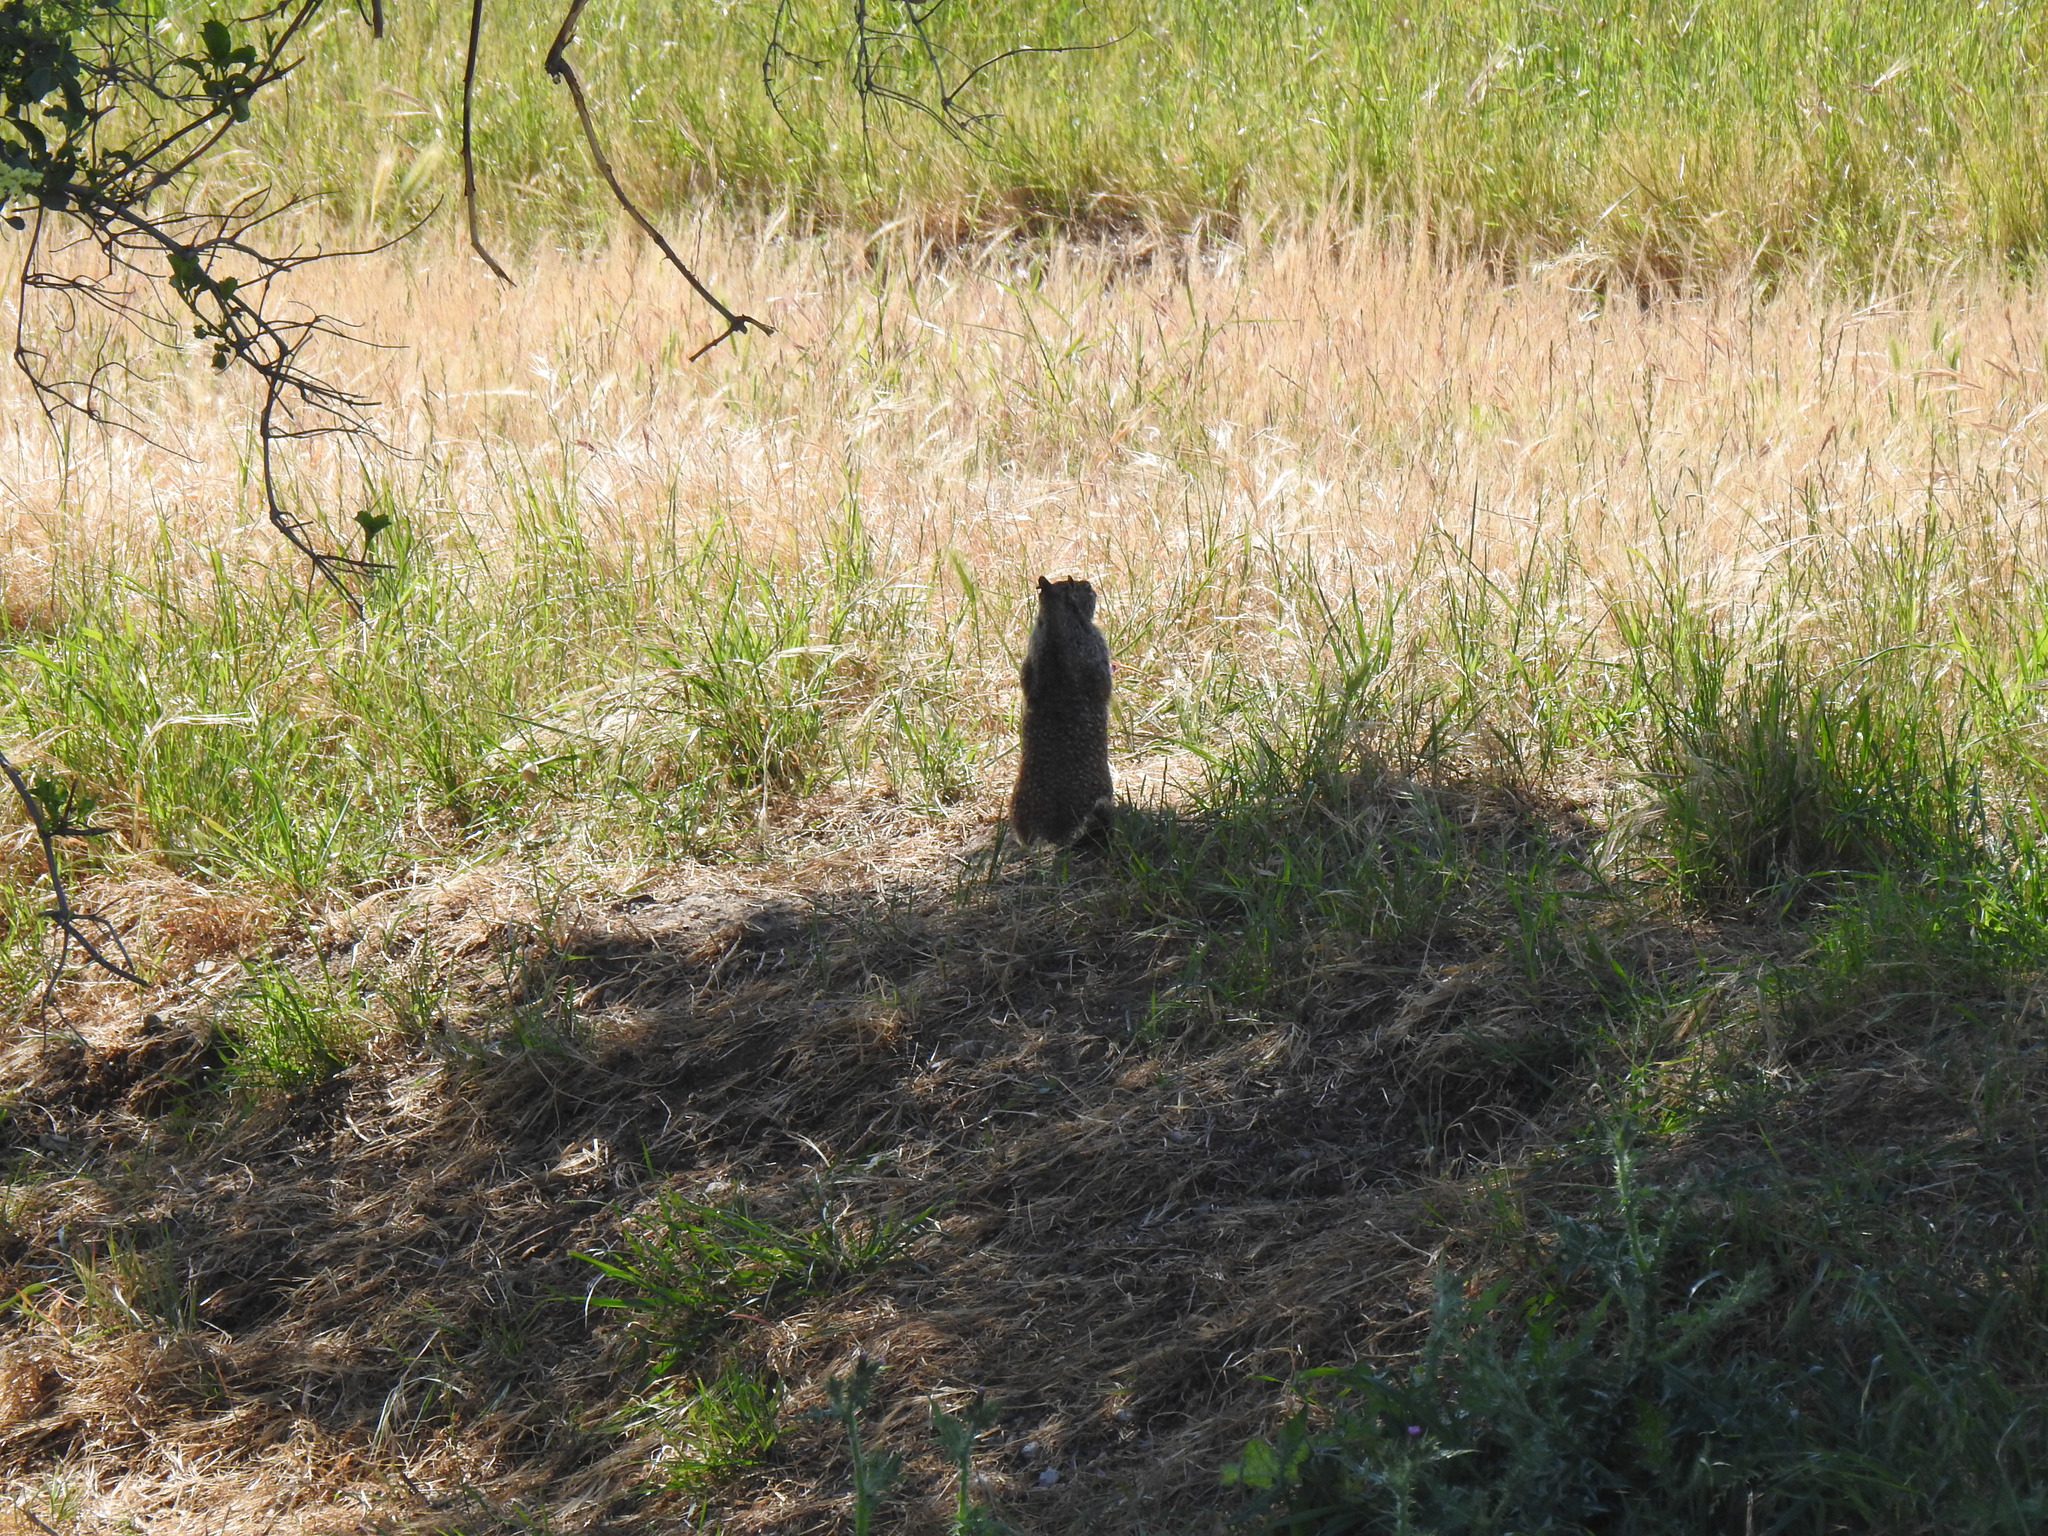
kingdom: Animalia
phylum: Chordata
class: Mammalia
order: Rodentia
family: Sciuridae
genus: Otospermophilus
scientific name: Otospermophilus beecheyi
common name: California ground squirrel
